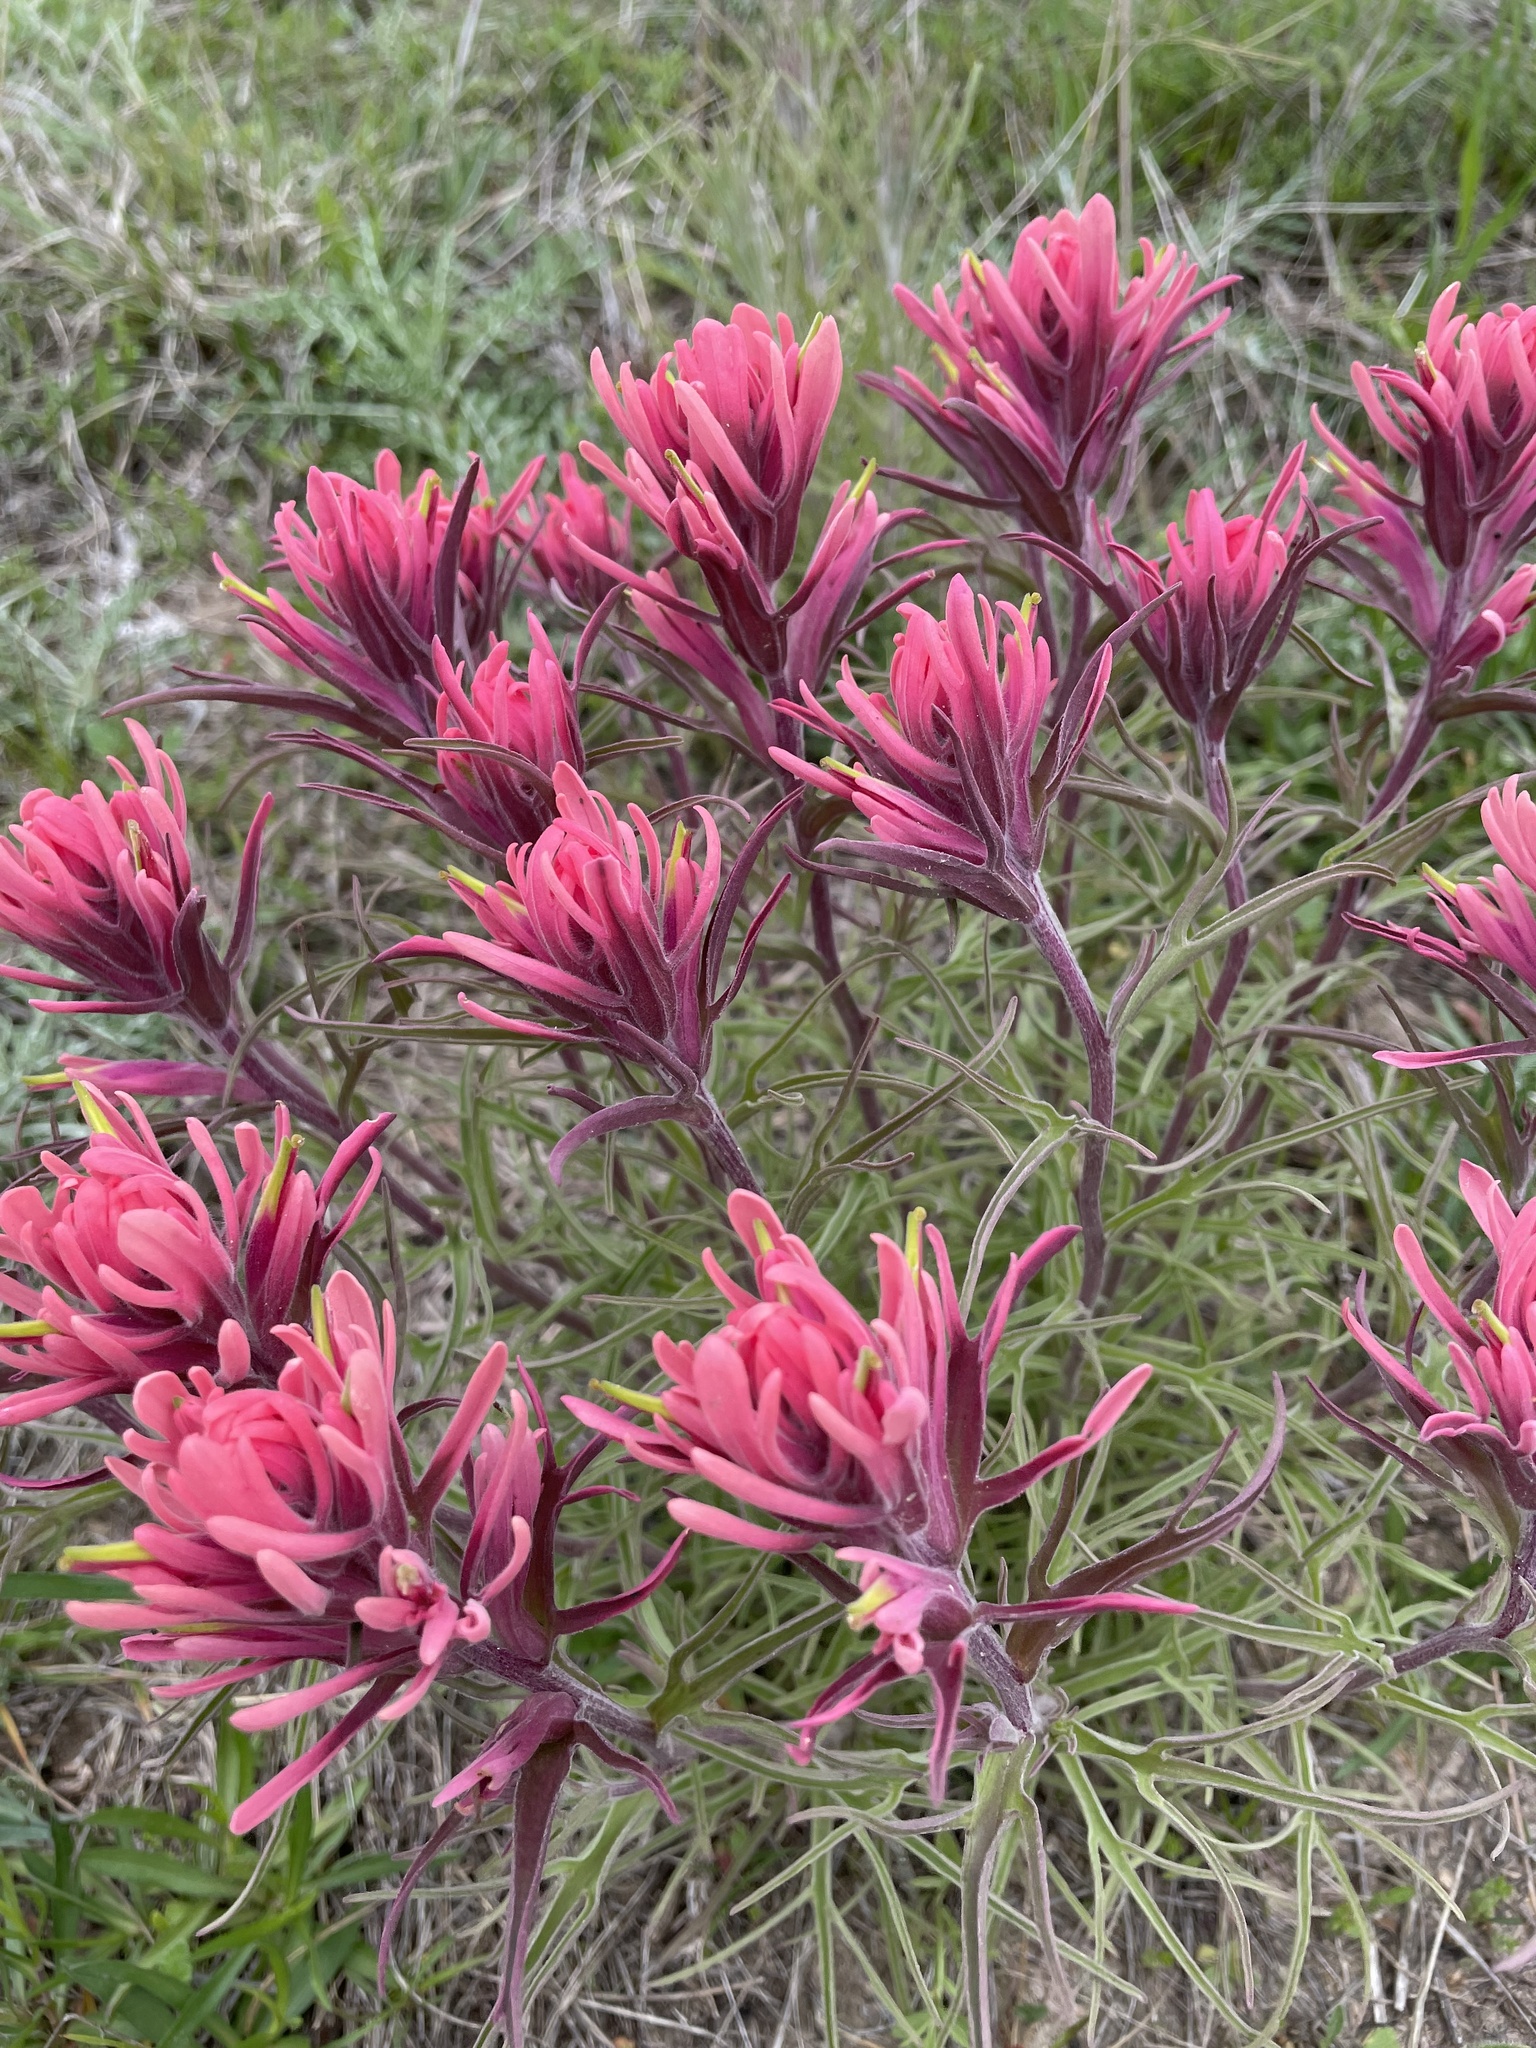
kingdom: Plantae
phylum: Tracheophyta
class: Magnoliopsida
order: Lamiales
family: Orobanchaceae
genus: Castilleja
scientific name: Castilleja purpurea
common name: Plains paintbrush
